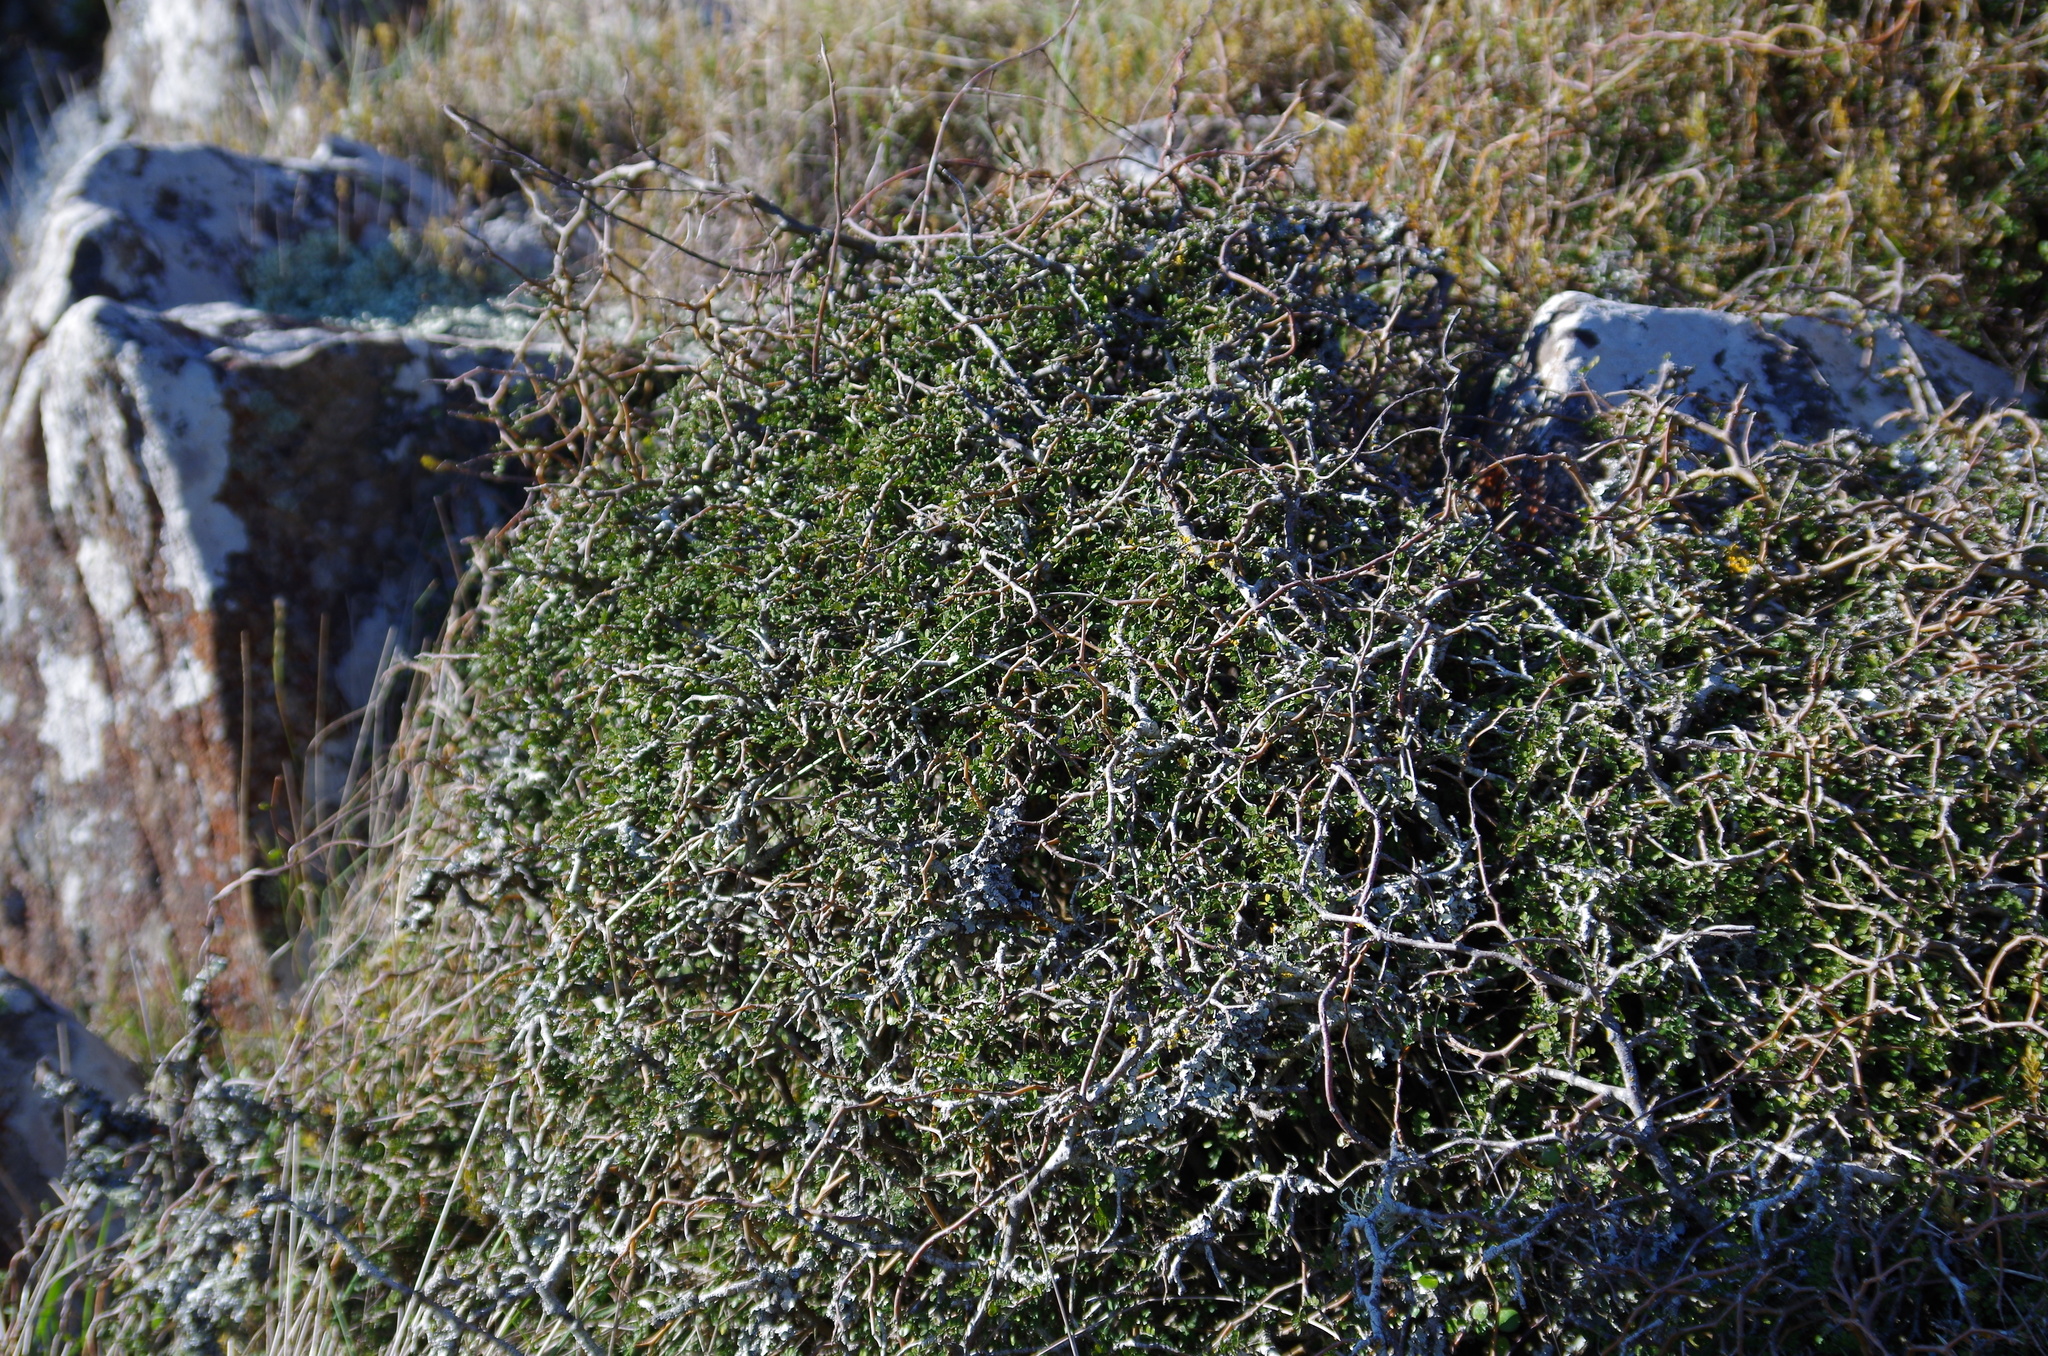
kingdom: Plantae
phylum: Tracheophyta
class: Magnoliopsida
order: Fabales
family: Fabaceae
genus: Sophora
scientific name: Sophora prostrata
